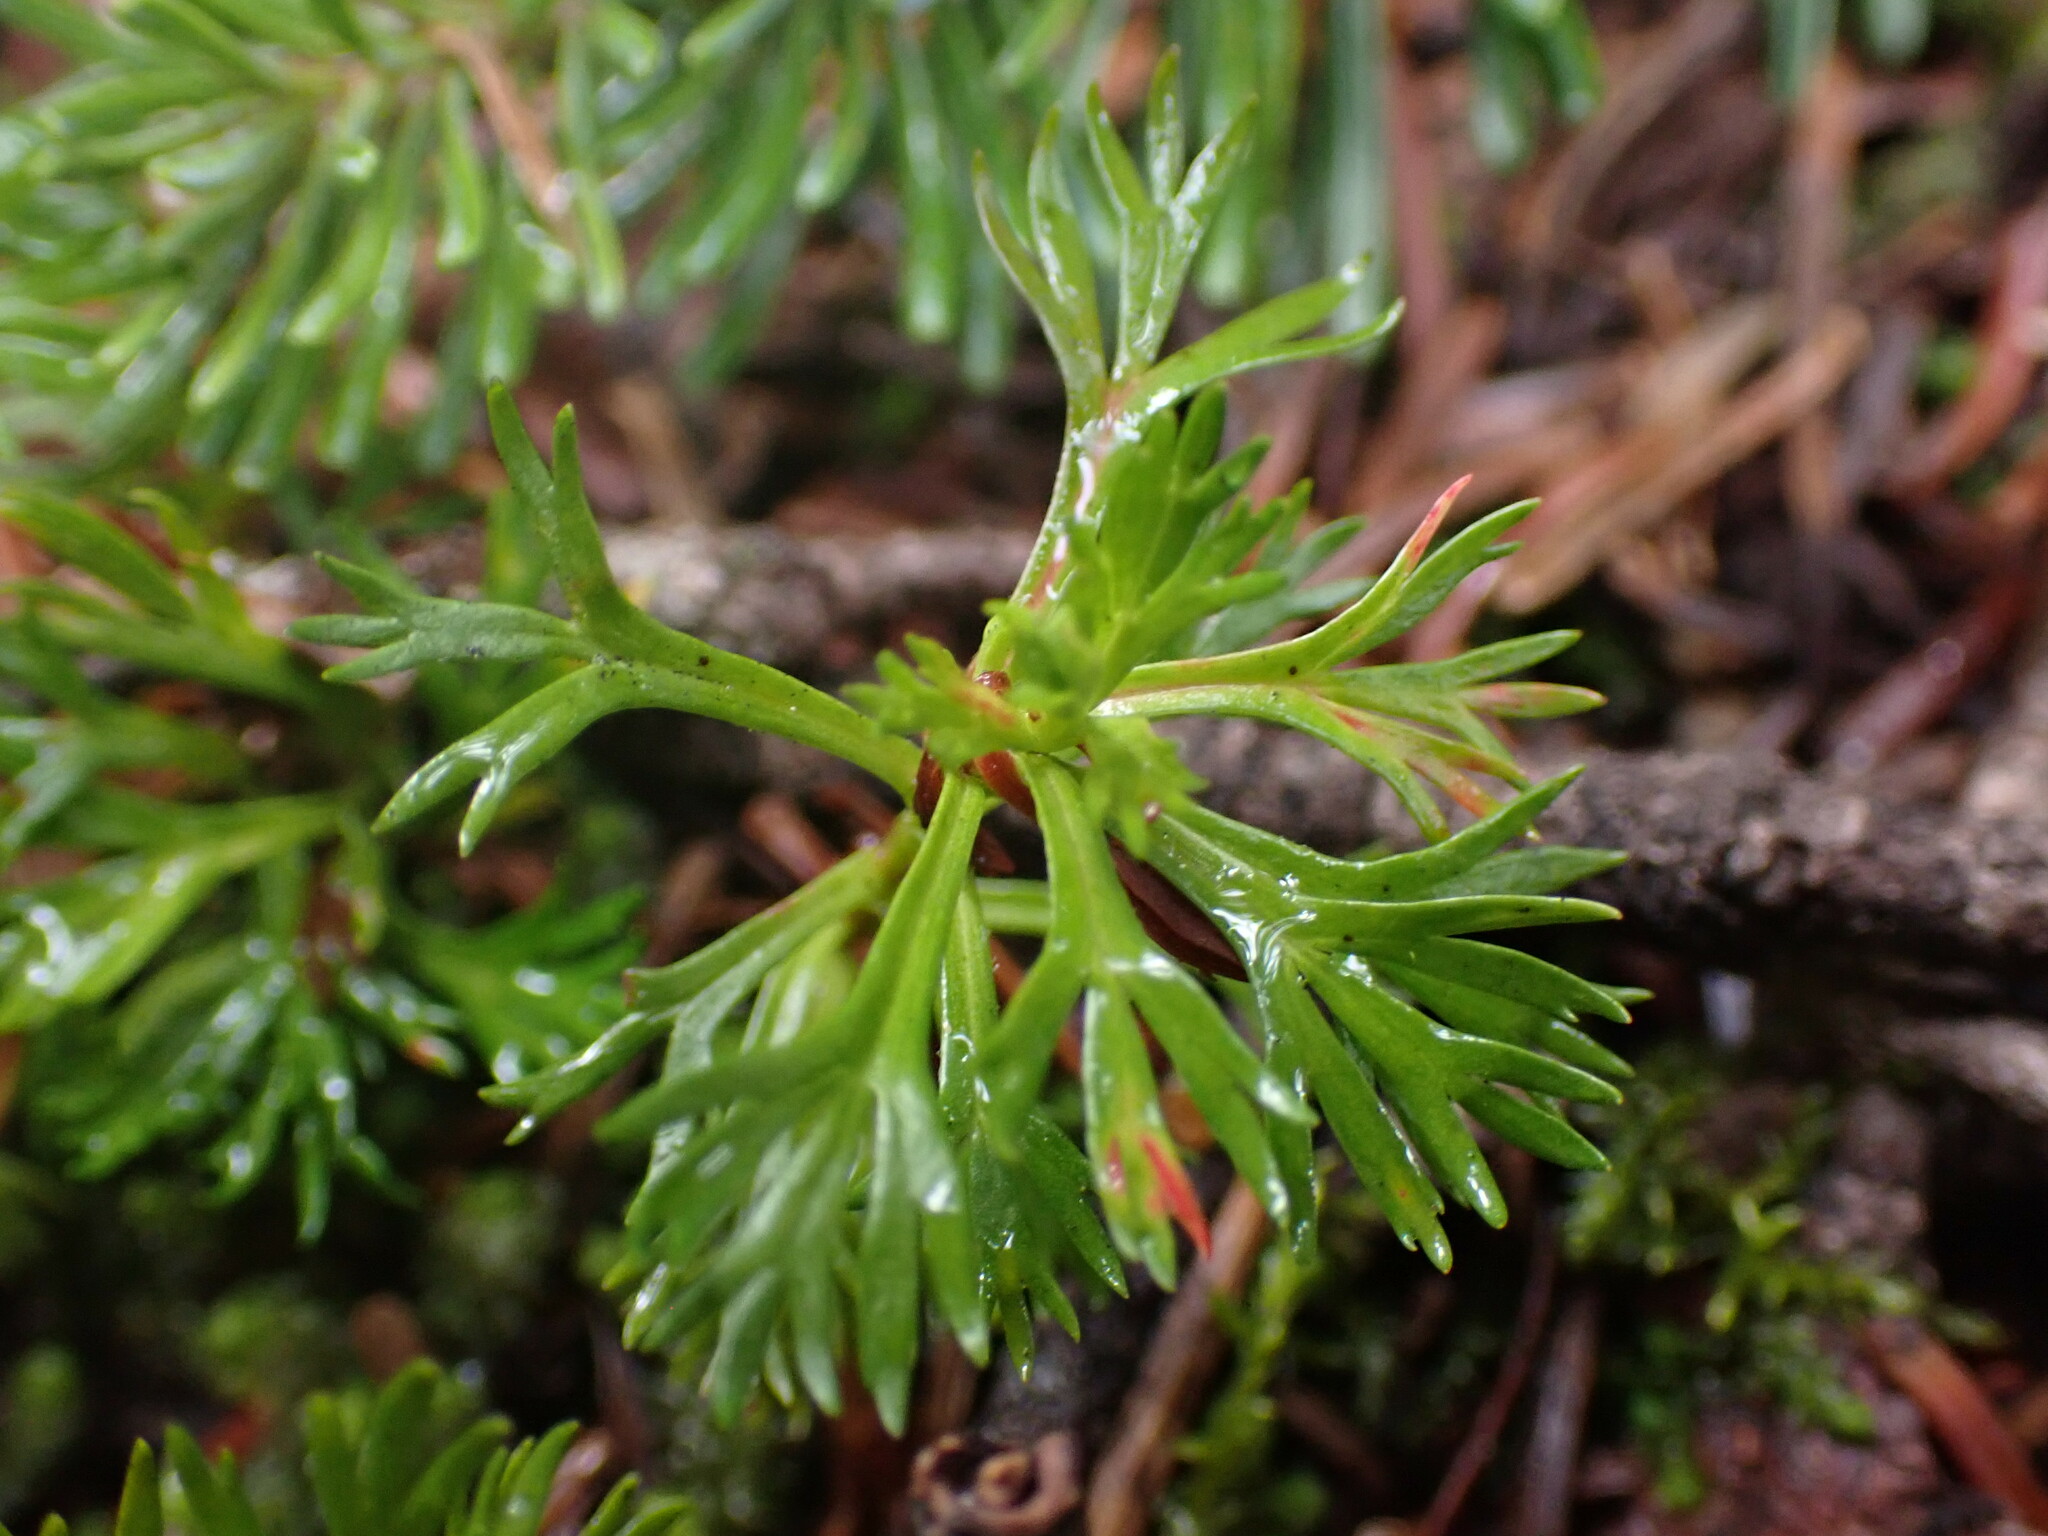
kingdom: Plantae
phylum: Tracheophyta
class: Magnoliopsida
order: Rosales
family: Rosaceae
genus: Luetkea
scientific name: Luetkea pectinata
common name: Partridgefoot
